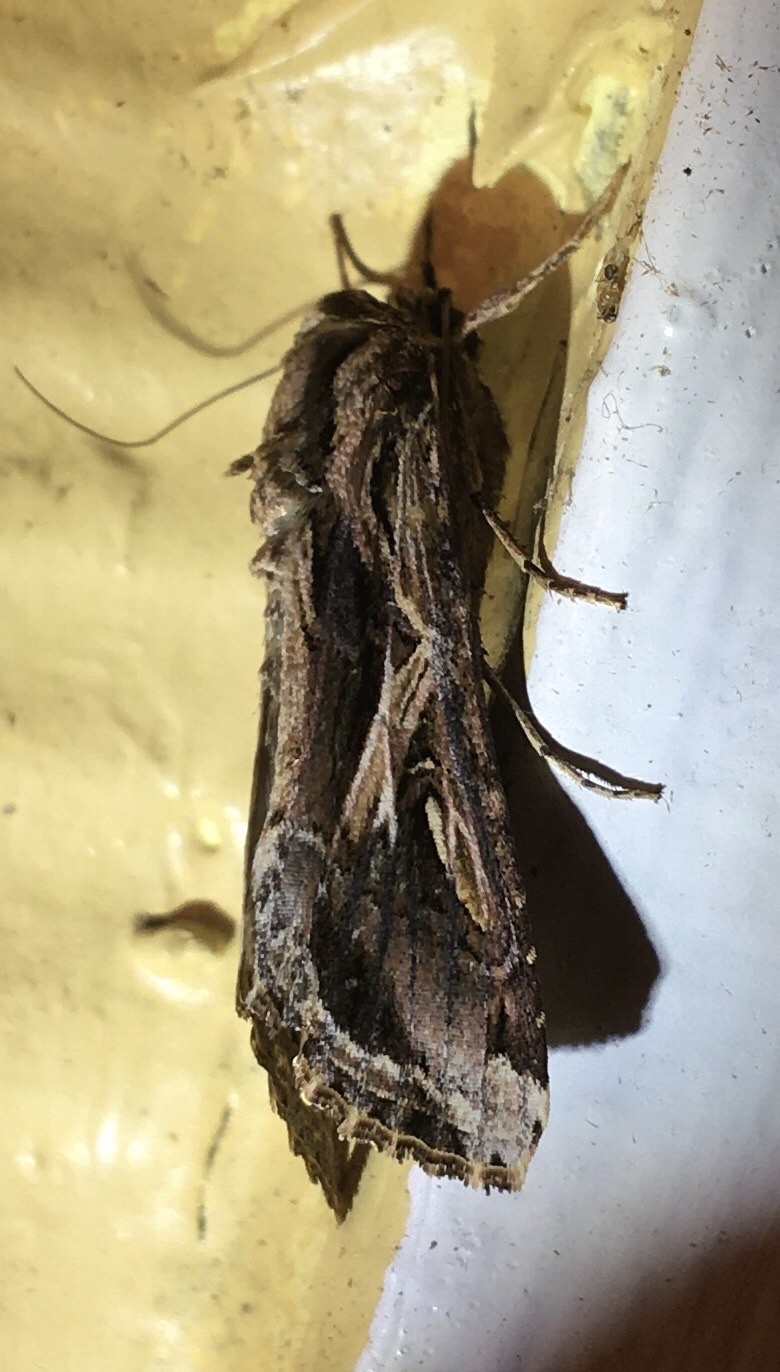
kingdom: Animalia
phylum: Arthropoda
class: Insecta
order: Lepidoptera
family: Noctuidae
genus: Spodoptera
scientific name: Spodoptera dolichos
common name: Sweetpotato armyworm
